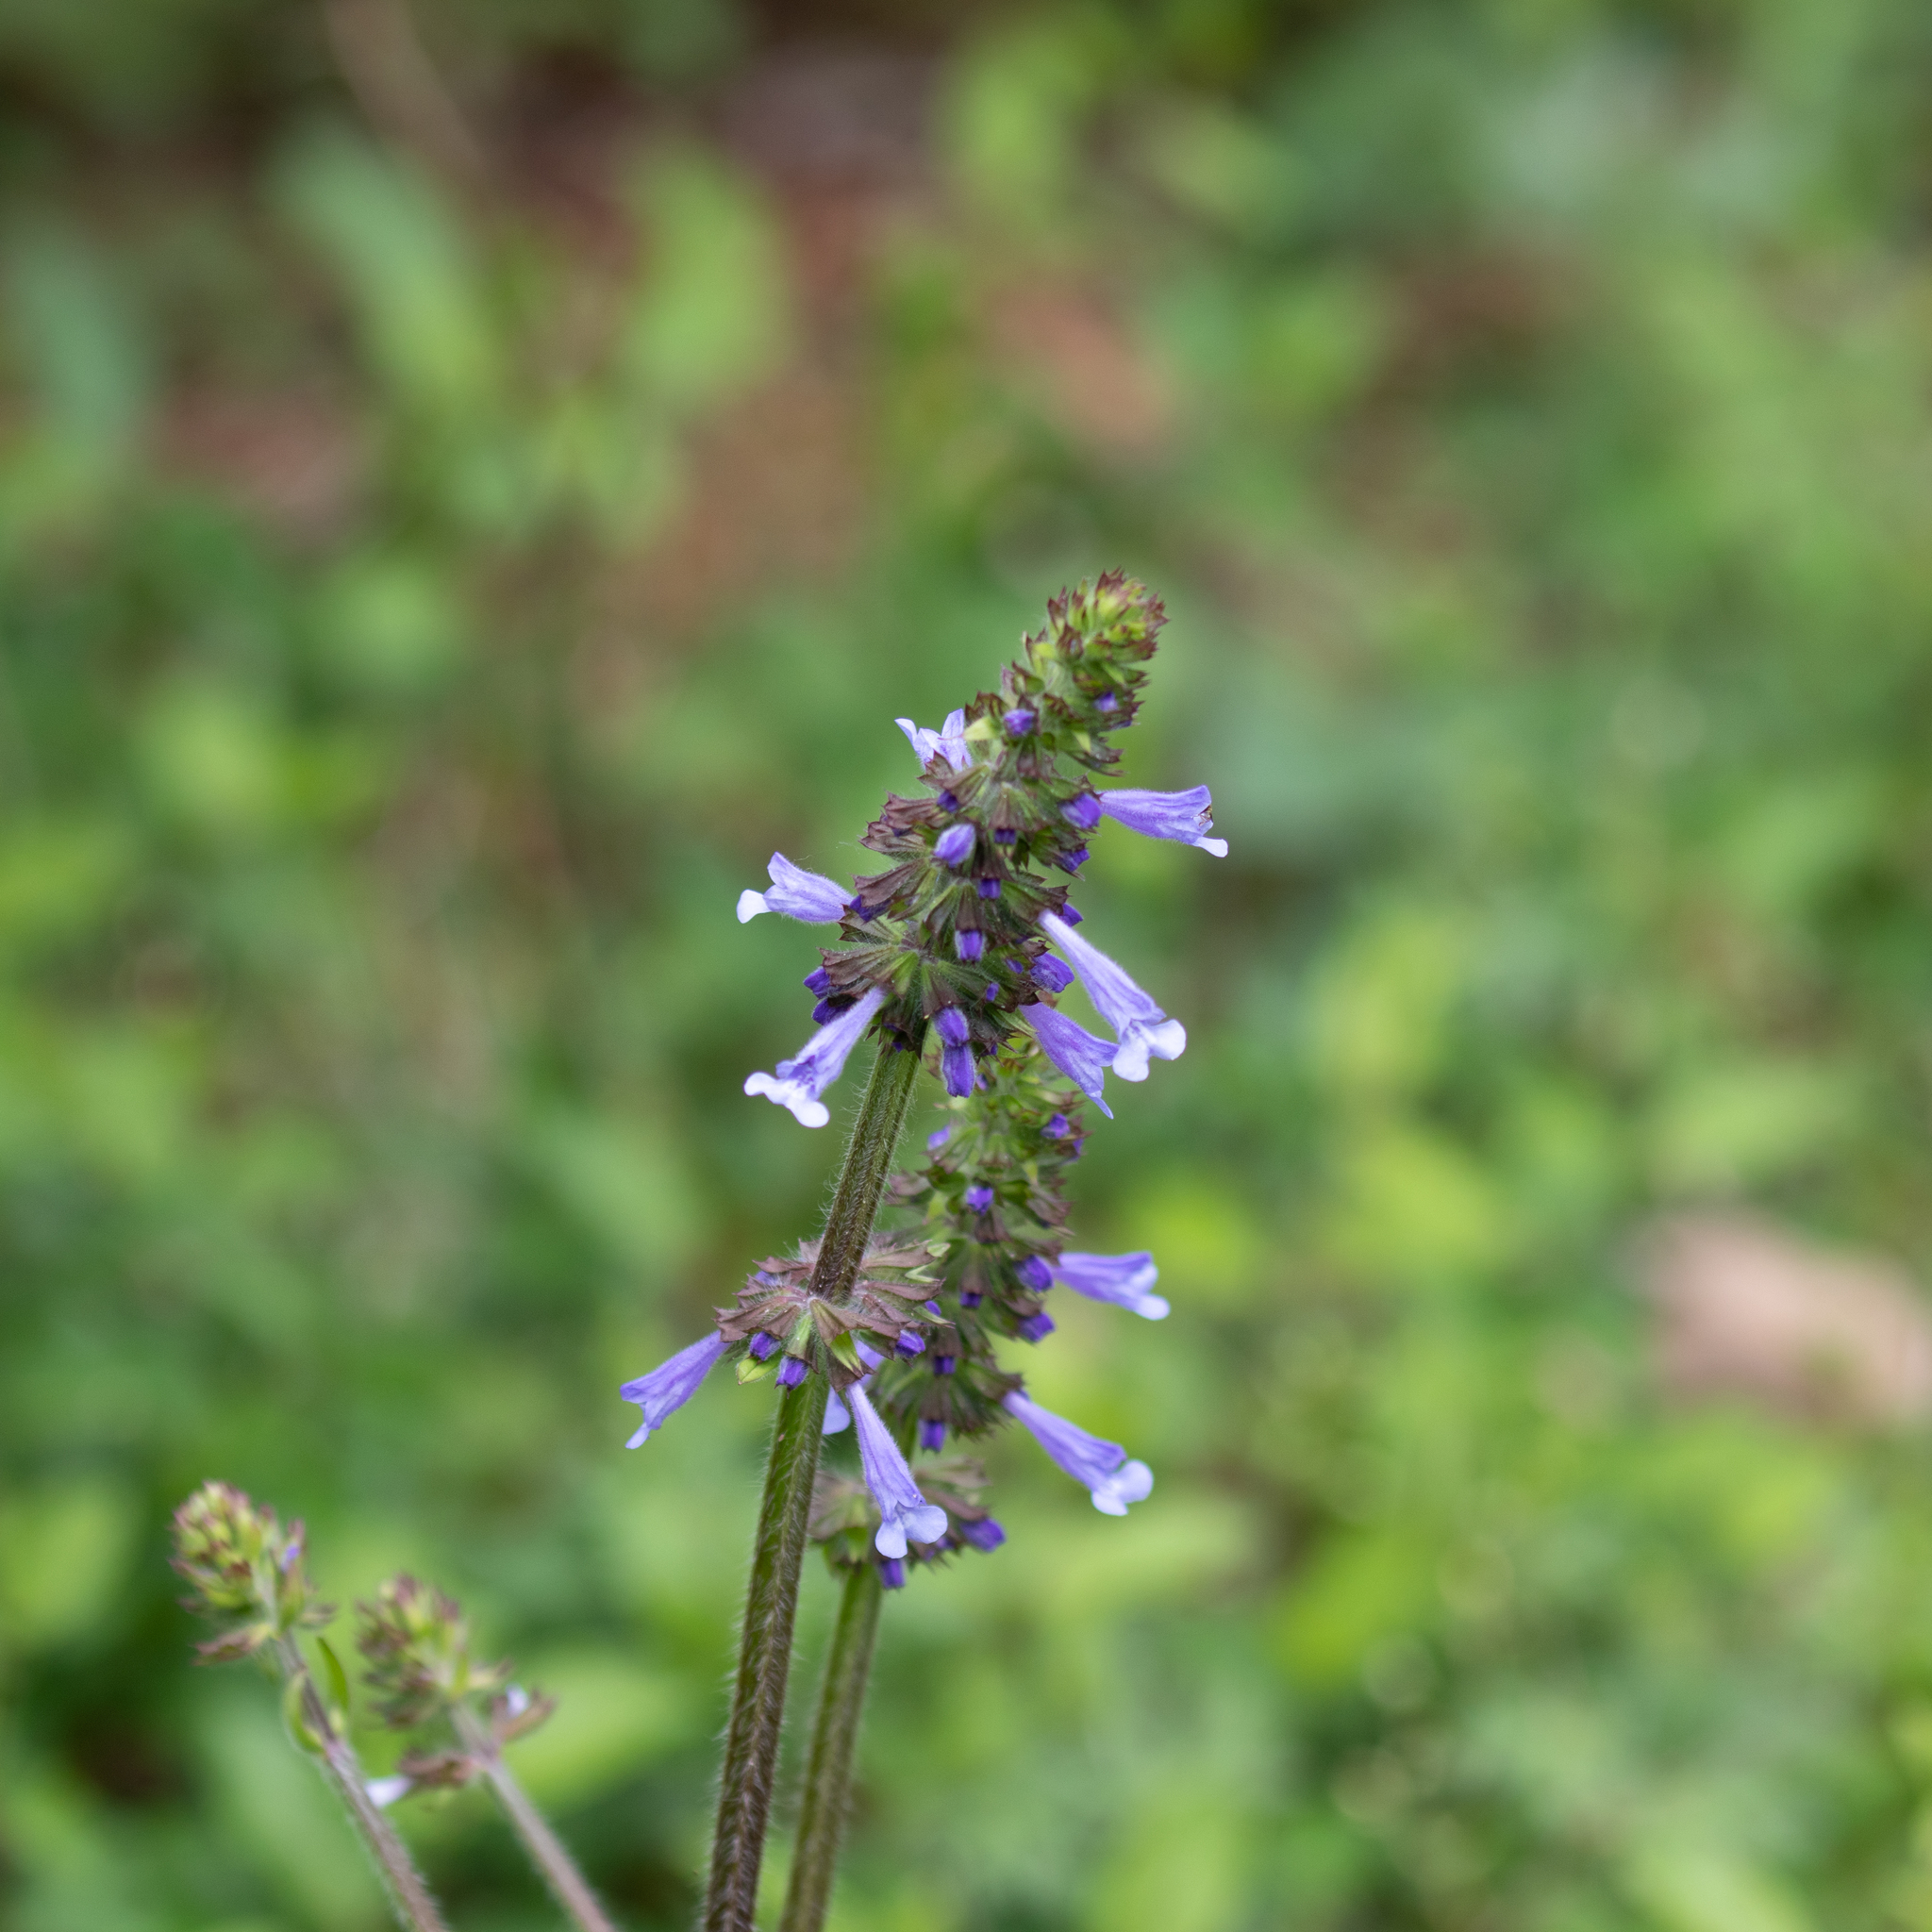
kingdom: Plantae
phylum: Tracheophyta
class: Magnoliopsida
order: Lamiales
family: Lamiaceae
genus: Salvia
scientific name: Salvia lyrata
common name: Cancerweed
